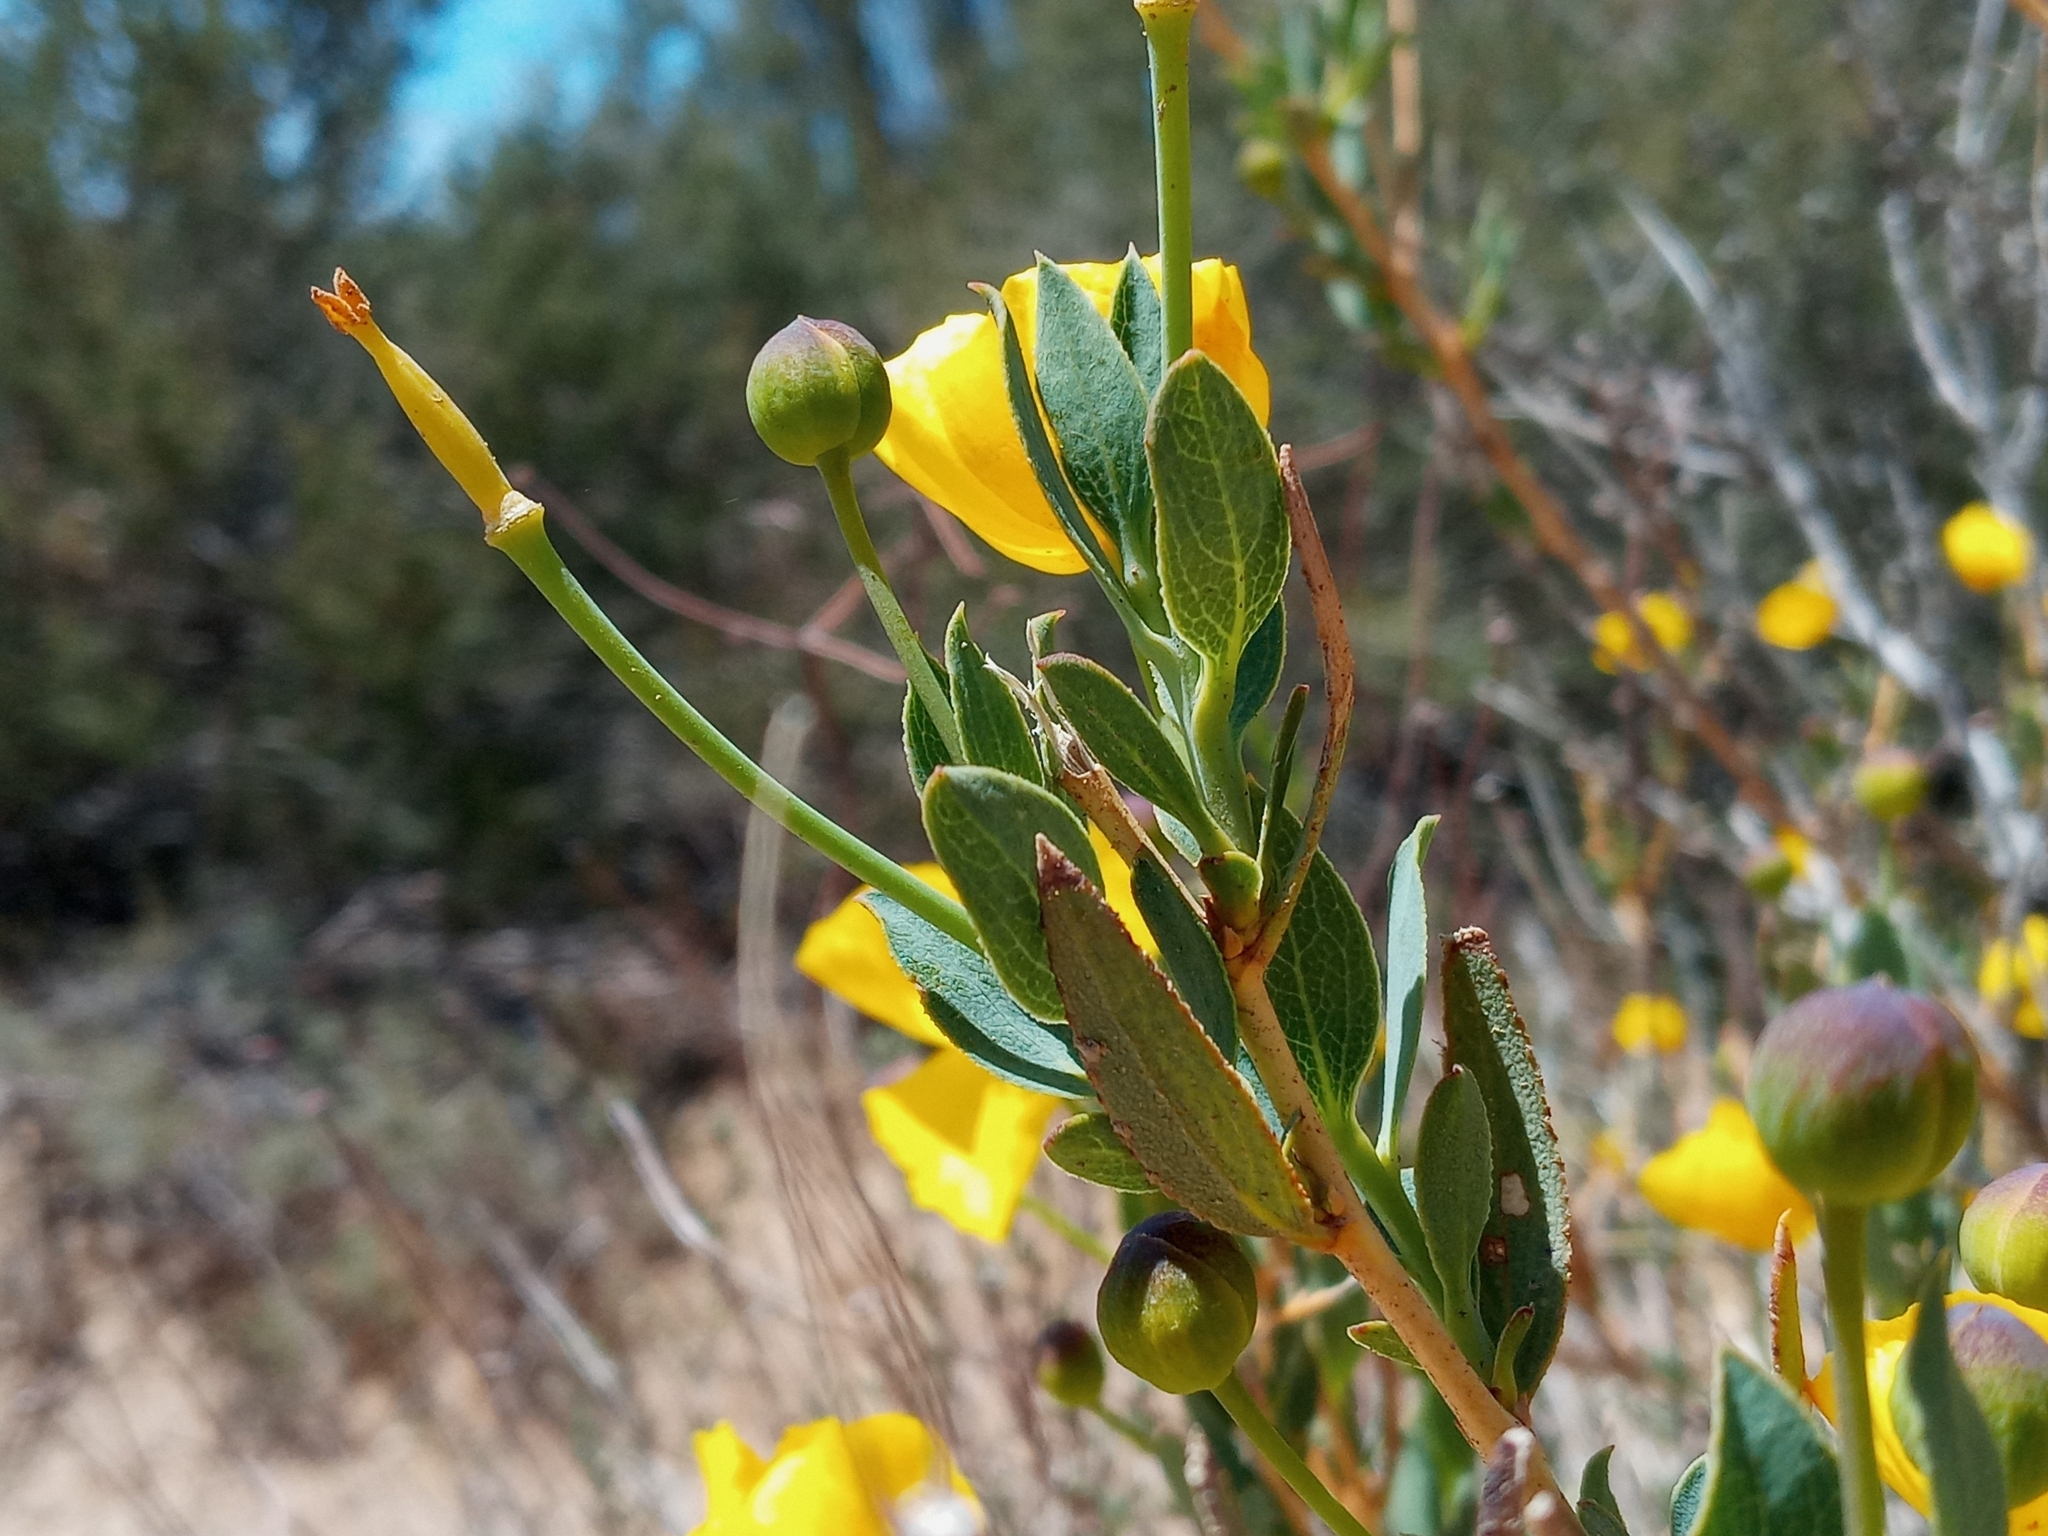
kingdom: Plantae
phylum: Tracheophyta
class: Magnoliopsida
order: Ranunculales
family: Papaveraceae
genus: Dendromecon
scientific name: Dendromecon rigida
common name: Tree poppy
